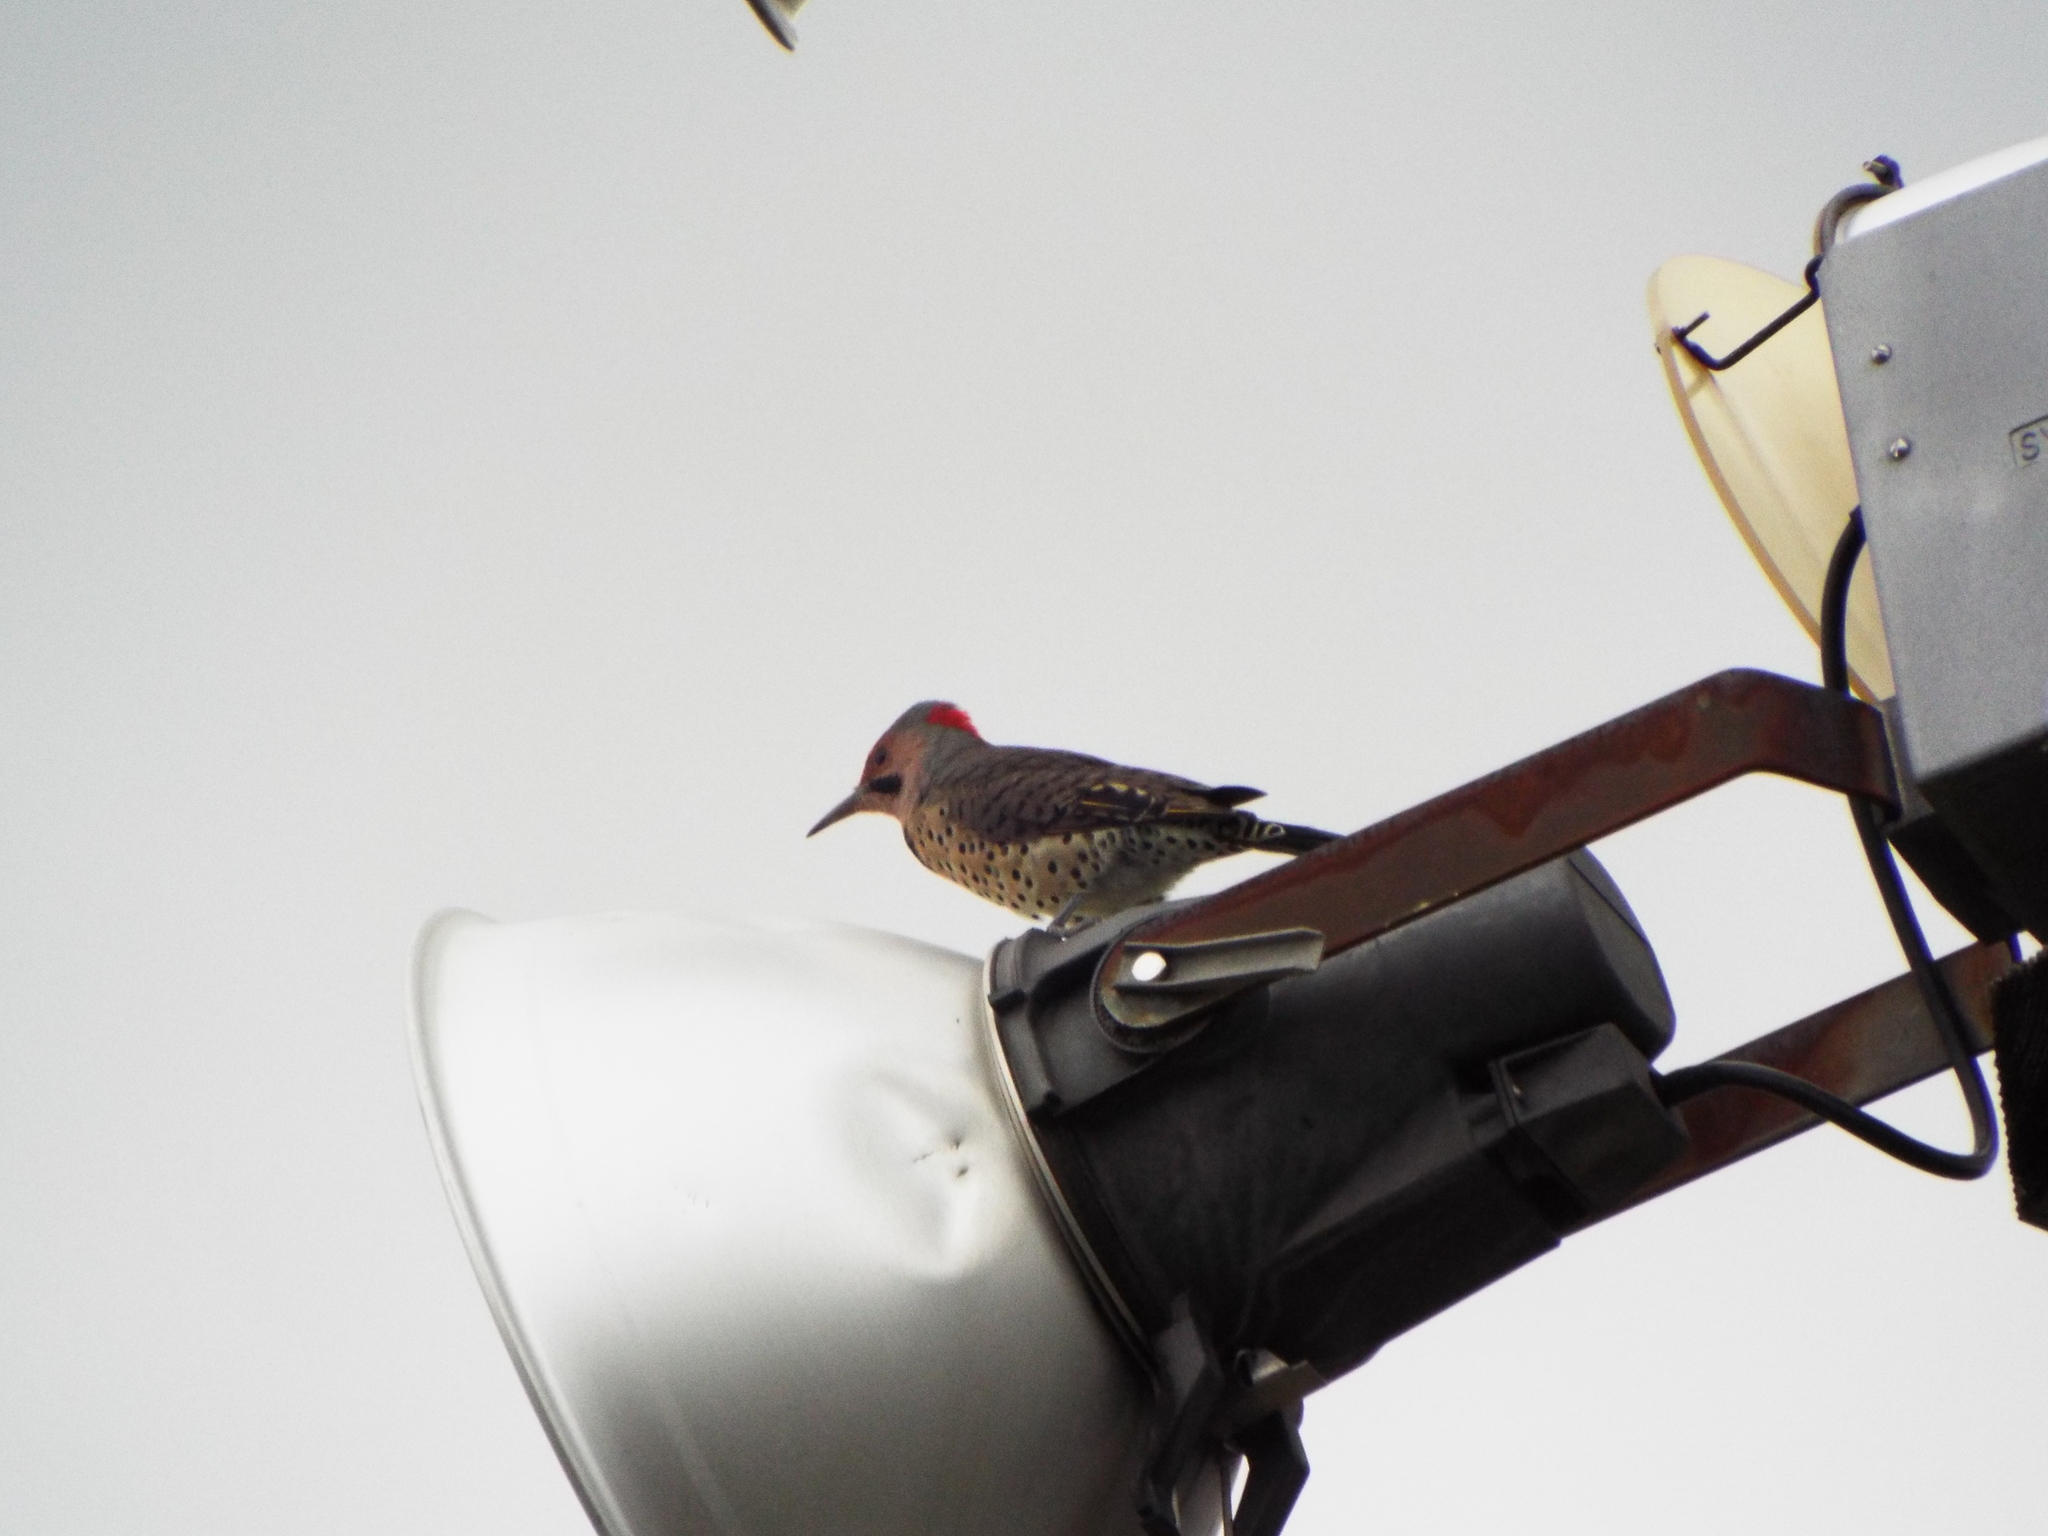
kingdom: Animalia
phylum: Chordata
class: Aves
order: Piciformes
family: Picidae
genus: Colaptes
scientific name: Colaptes auratus
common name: Northern flicker
